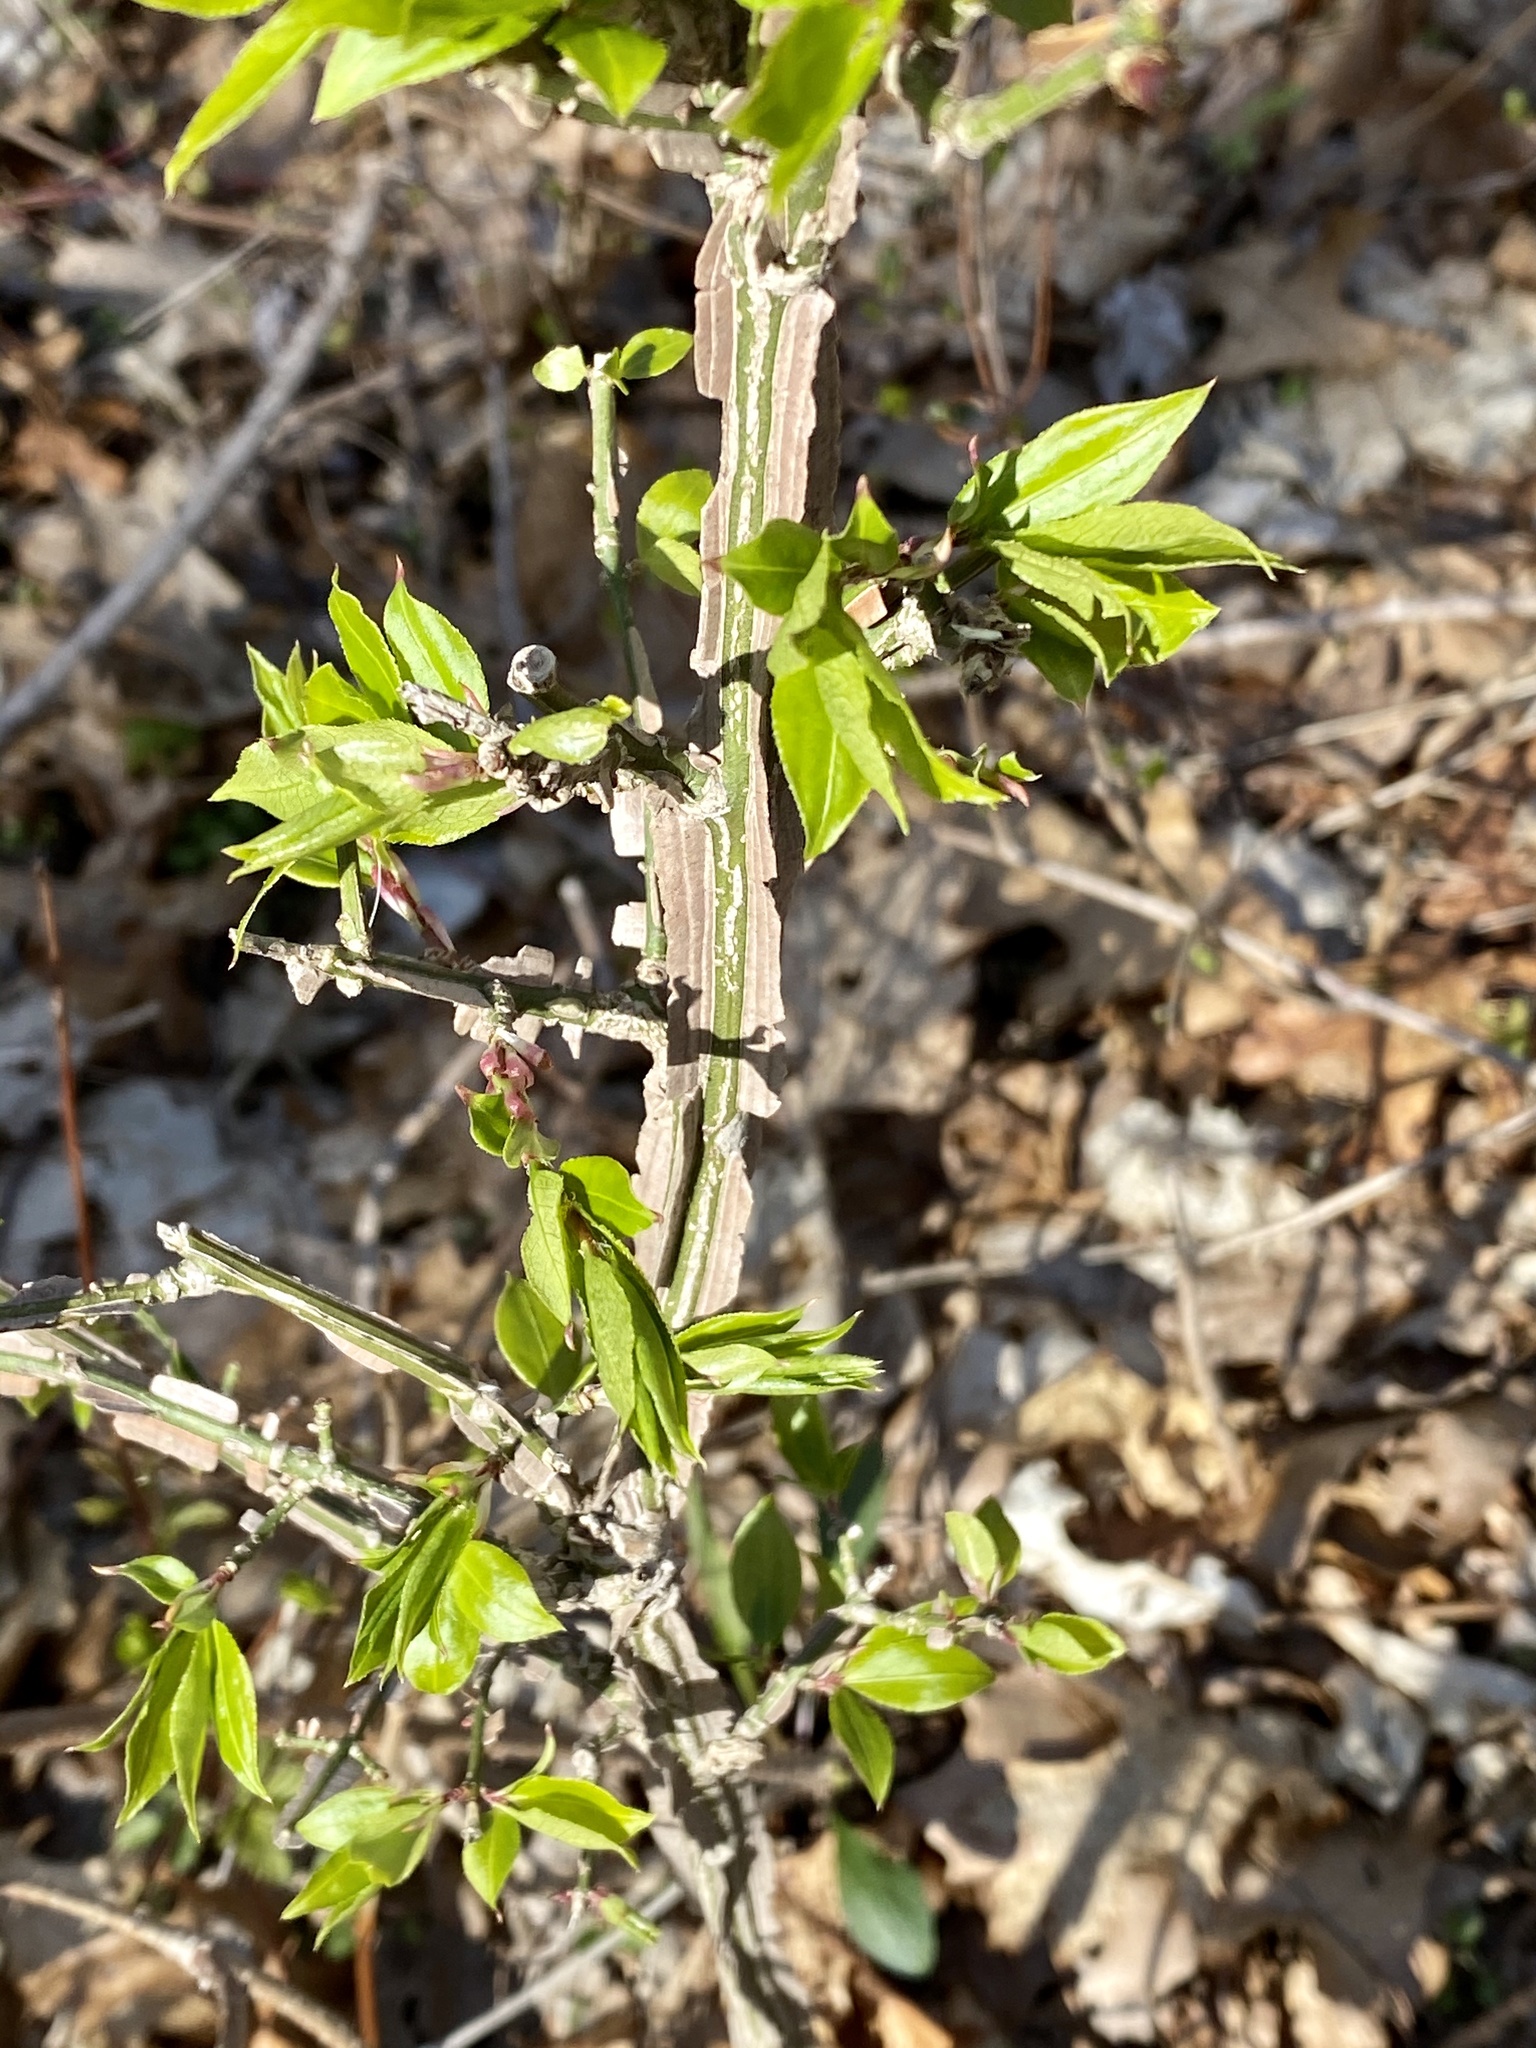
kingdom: Plantae
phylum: Tracheophyta
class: Magnoliopsida
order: Celastrales
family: Celastraceae
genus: Euonymus
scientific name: Euonymus alatus
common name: Winged euonymus
